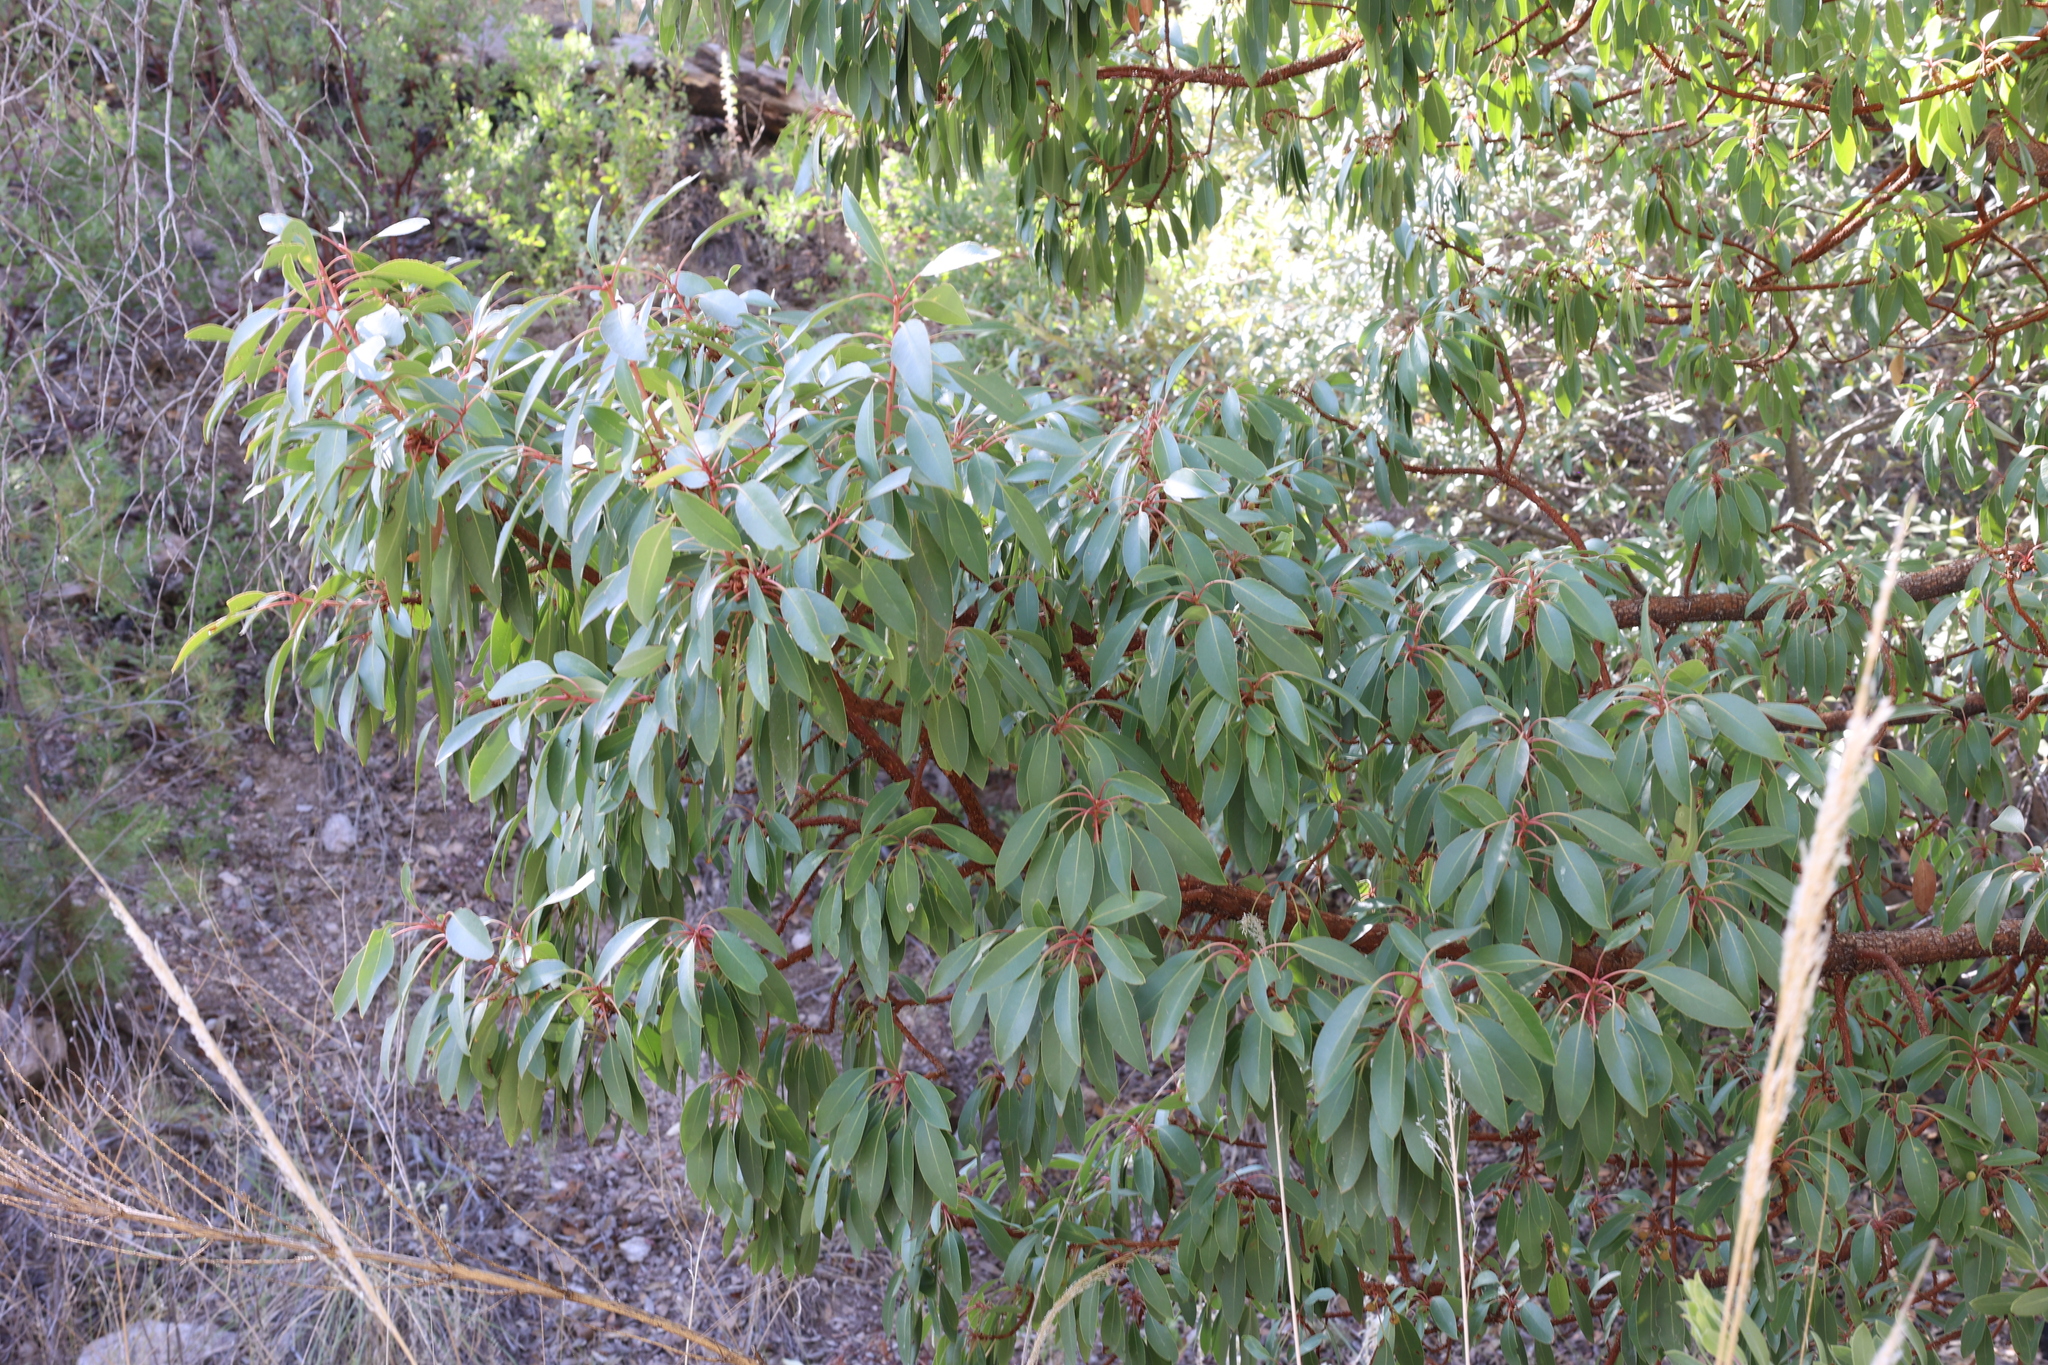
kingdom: Plantae
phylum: Tracheophyta
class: Magnoliopsida
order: Ericales
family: Ericaceae
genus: Arbutus
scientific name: Arbutus arizonica
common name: Arizona madrone
